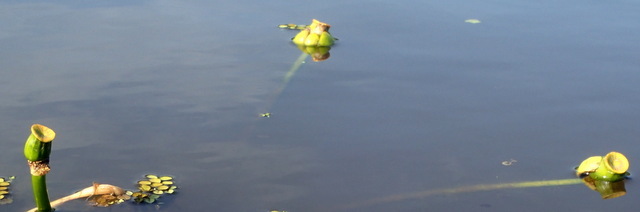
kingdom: Plantae
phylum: Tracheophyta
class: Magnoliopsida
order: Nymphaeales
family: Nymphaeaceae
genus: Nuphar
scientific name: Nuphar advena
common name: Spatter-dock
